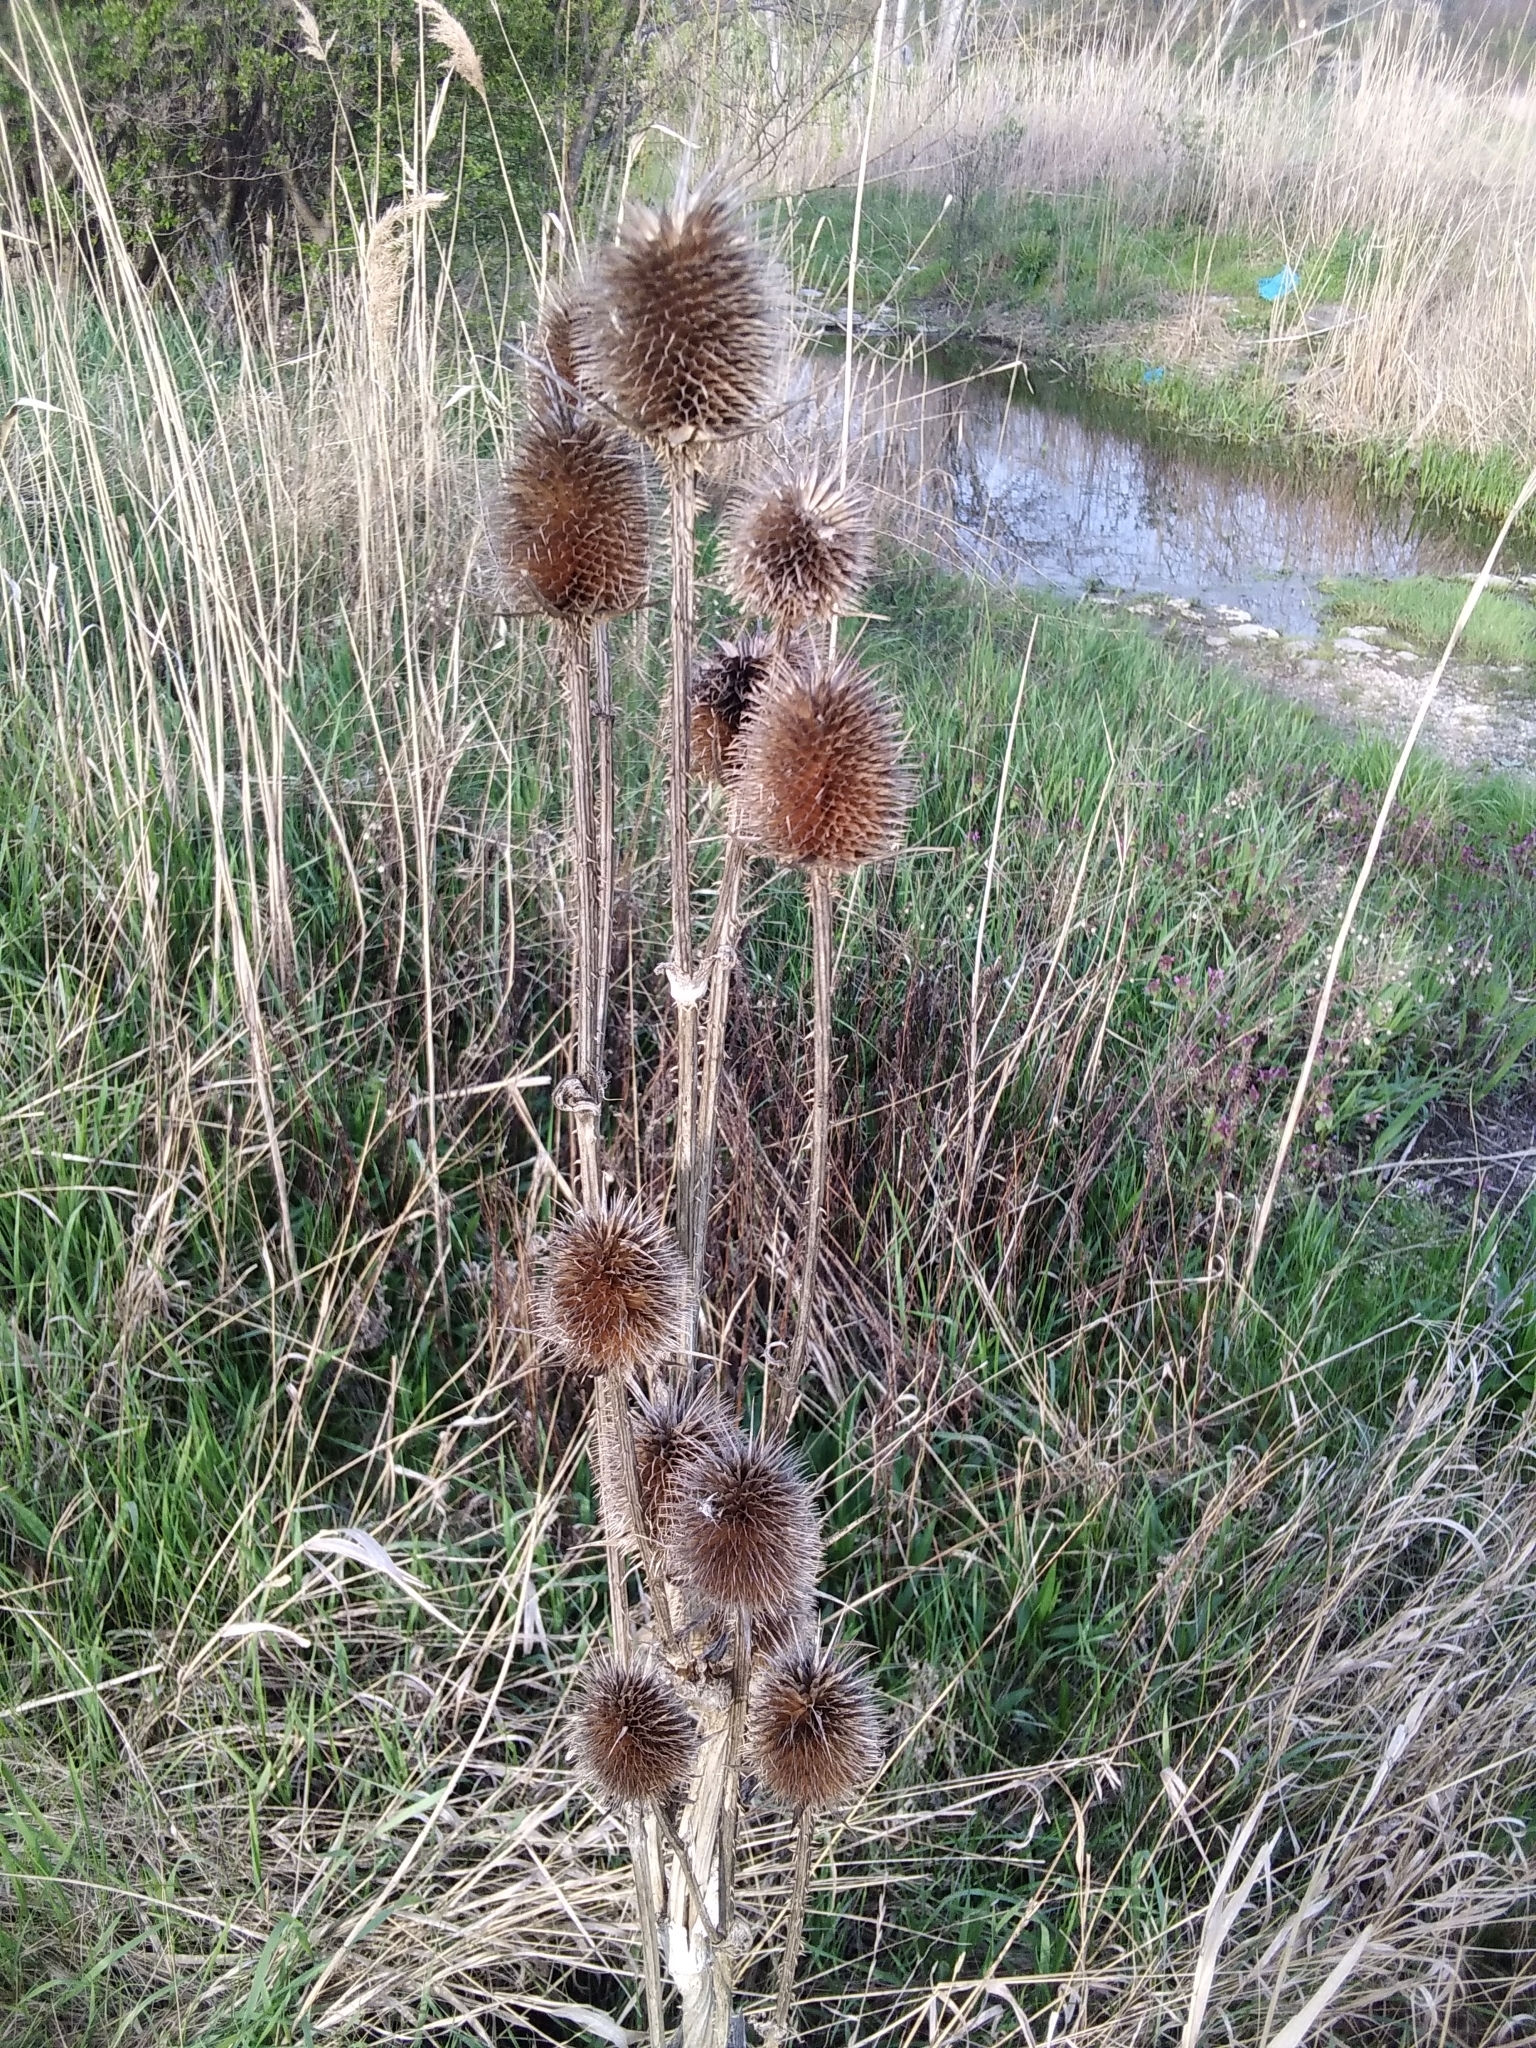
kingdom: Plantae
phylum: Tracheophyta
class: Magnoliopsida
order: Dipsacales
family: Caprifoliaceae
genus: Dipsacus
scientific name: Dipsacus laciniatus
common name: Cut-leaved teasel
